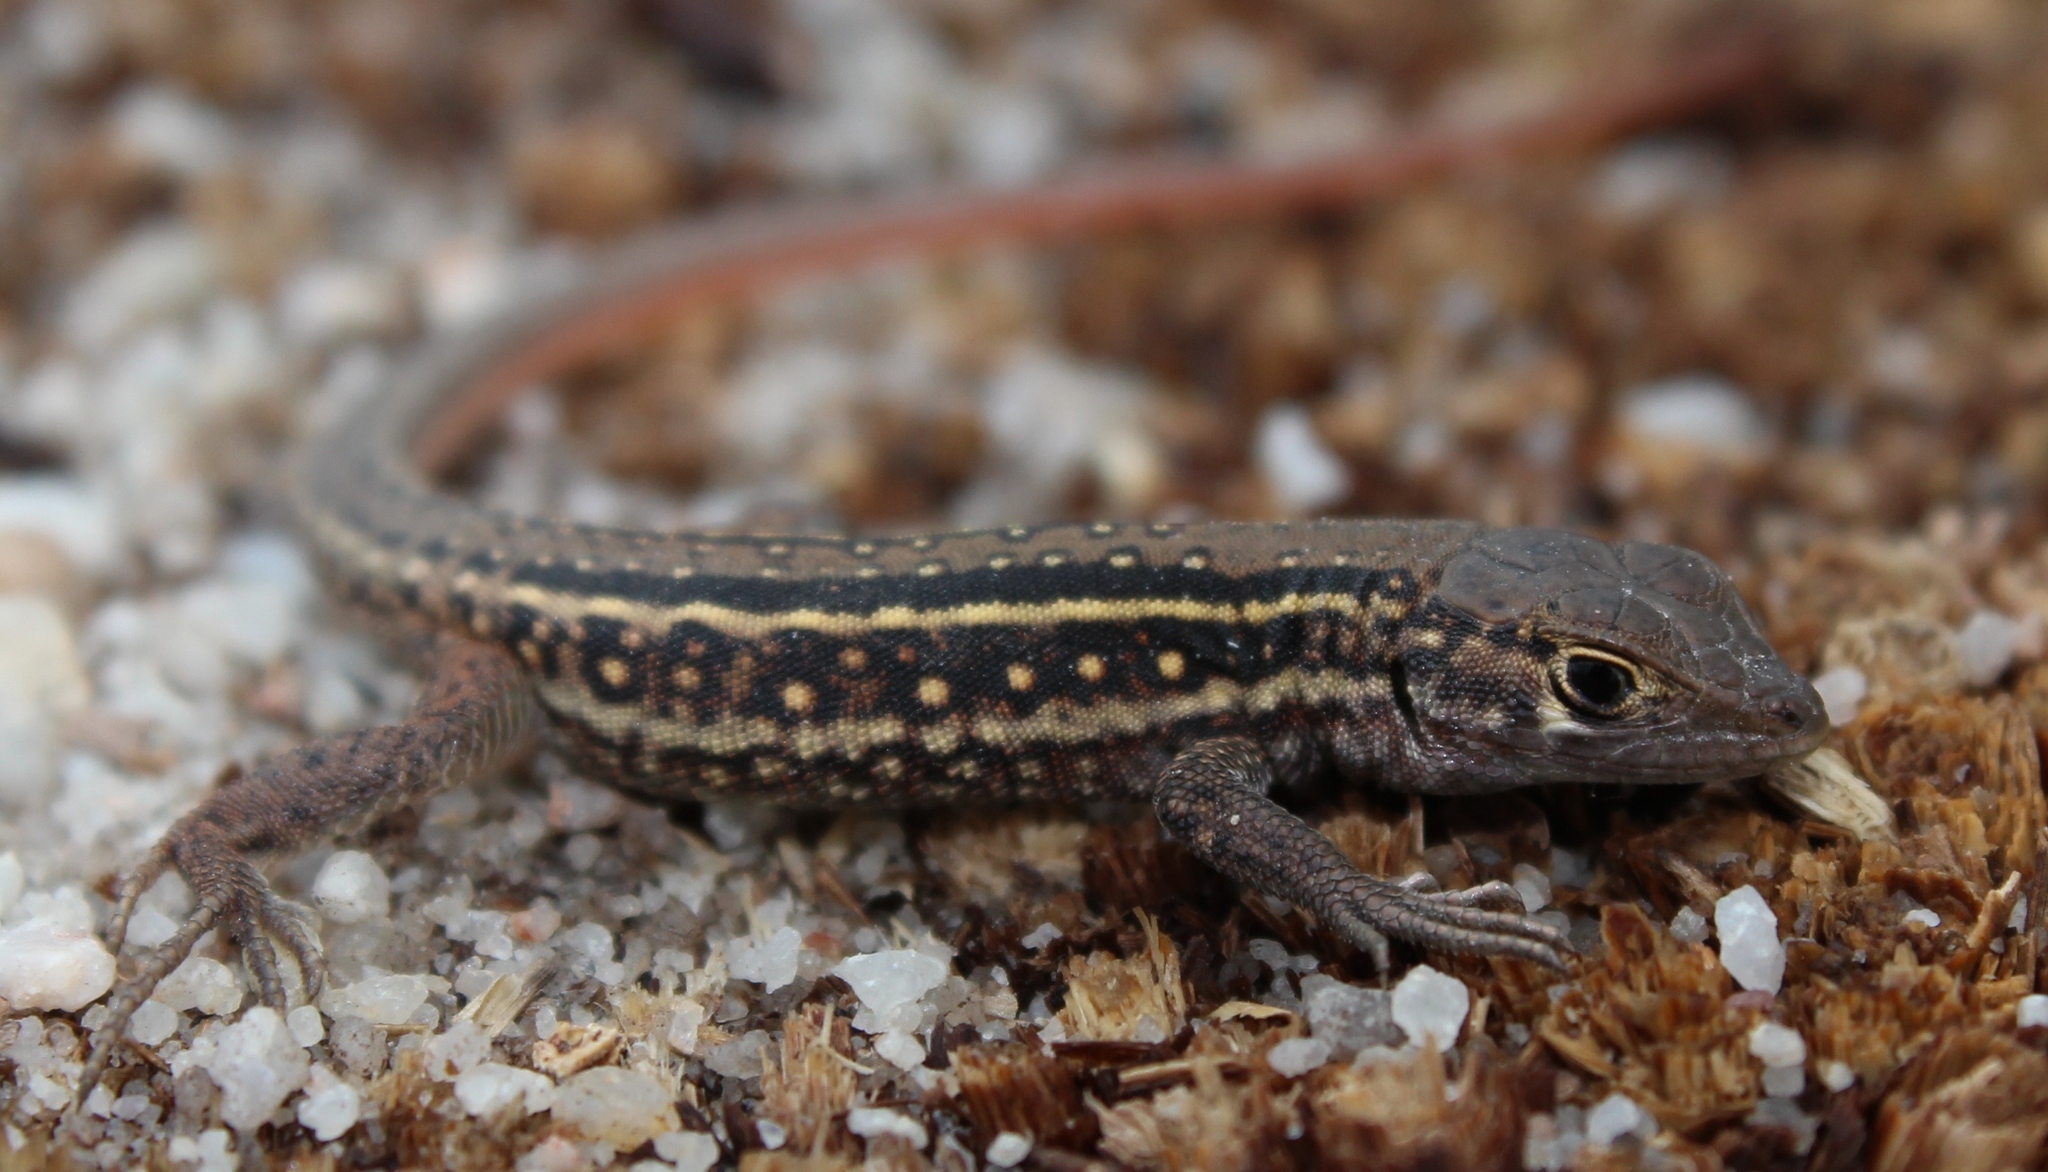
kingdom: Animalia
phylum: Chordata
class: Squamata
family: Lacertidae
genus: Pedioplanis
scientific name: Pedioplanis lineoocellata
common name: Spotted sand lizard
